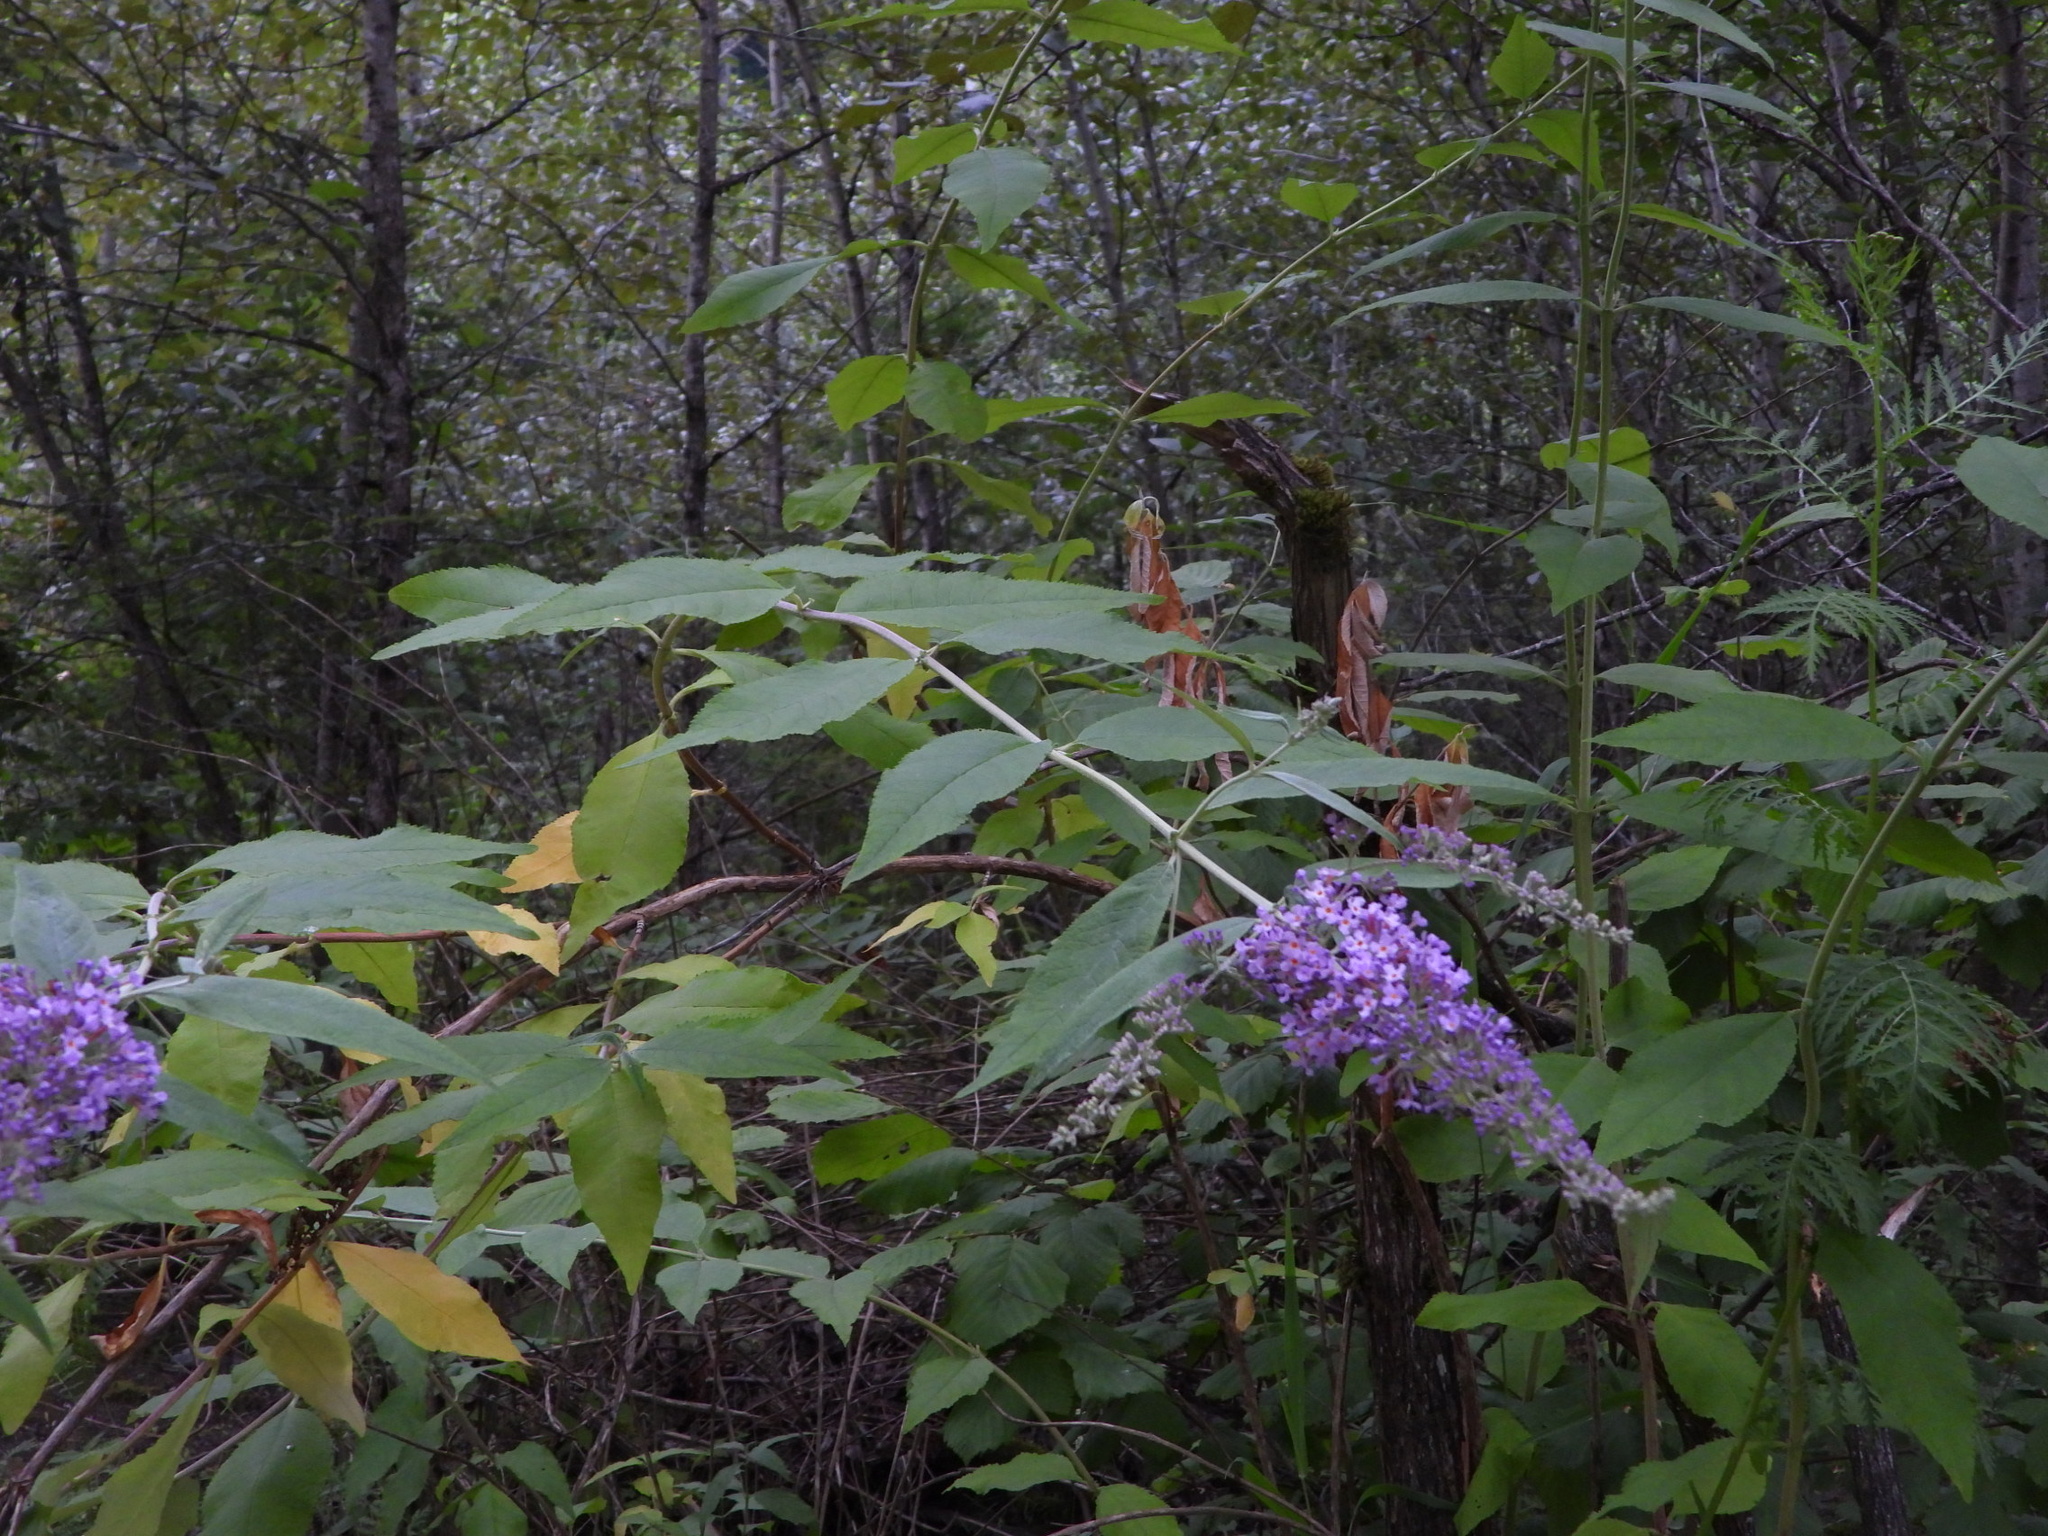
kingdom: Plantae
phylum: Tracheophyta
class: Magnoliopsida
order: Lamiales
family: Scrophulariaceae
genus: Buddleja
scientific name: Buddleja davidii
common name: Butterfly-bush
